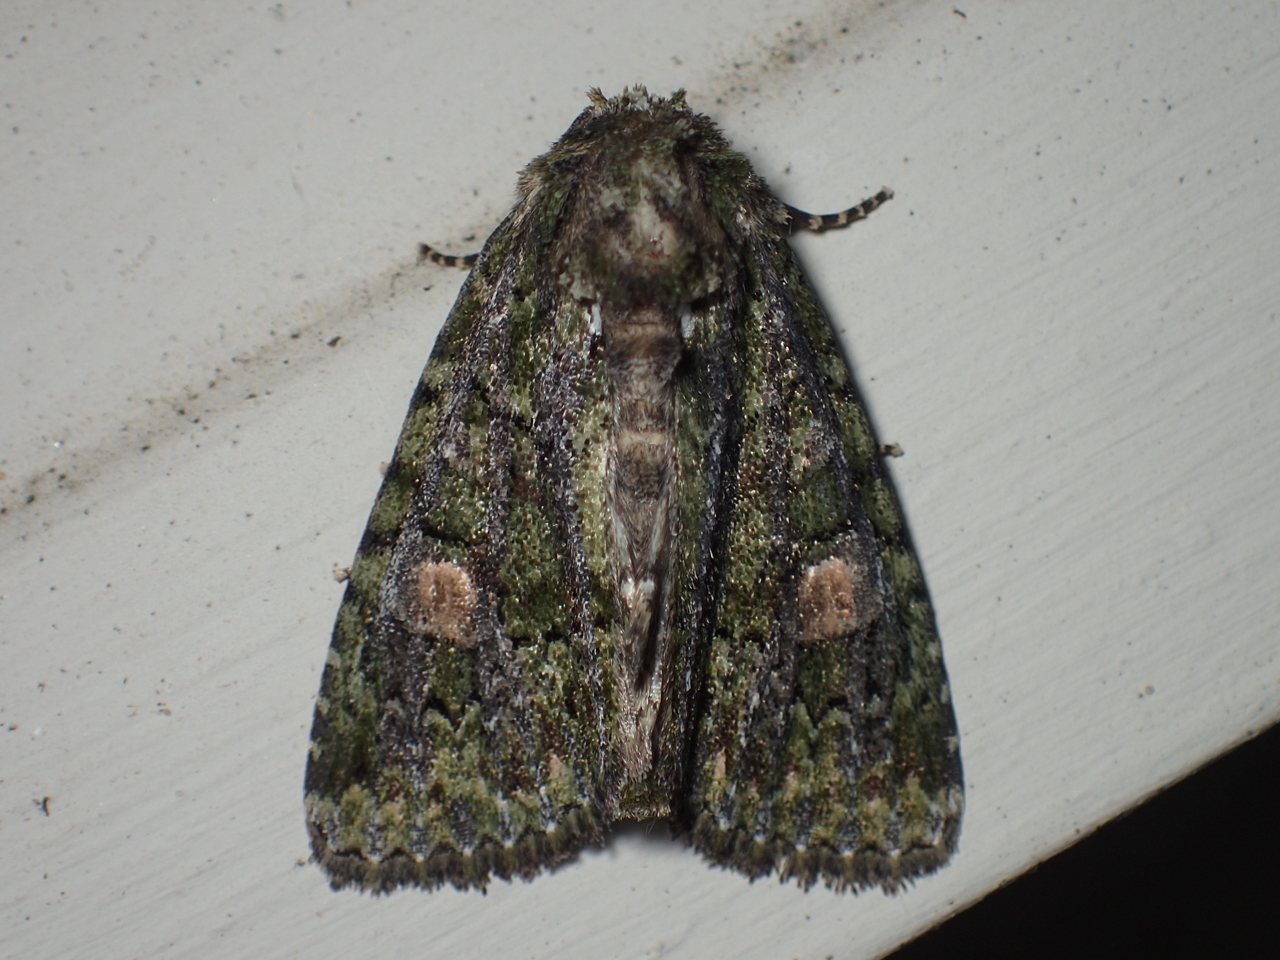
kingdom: Animalia
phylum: Arthropoda
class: Insecta
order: Lepidoptera
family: Noctuidae
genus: Phosphila
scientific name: Phosphila miselioides
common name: Spotted phosphila moth
